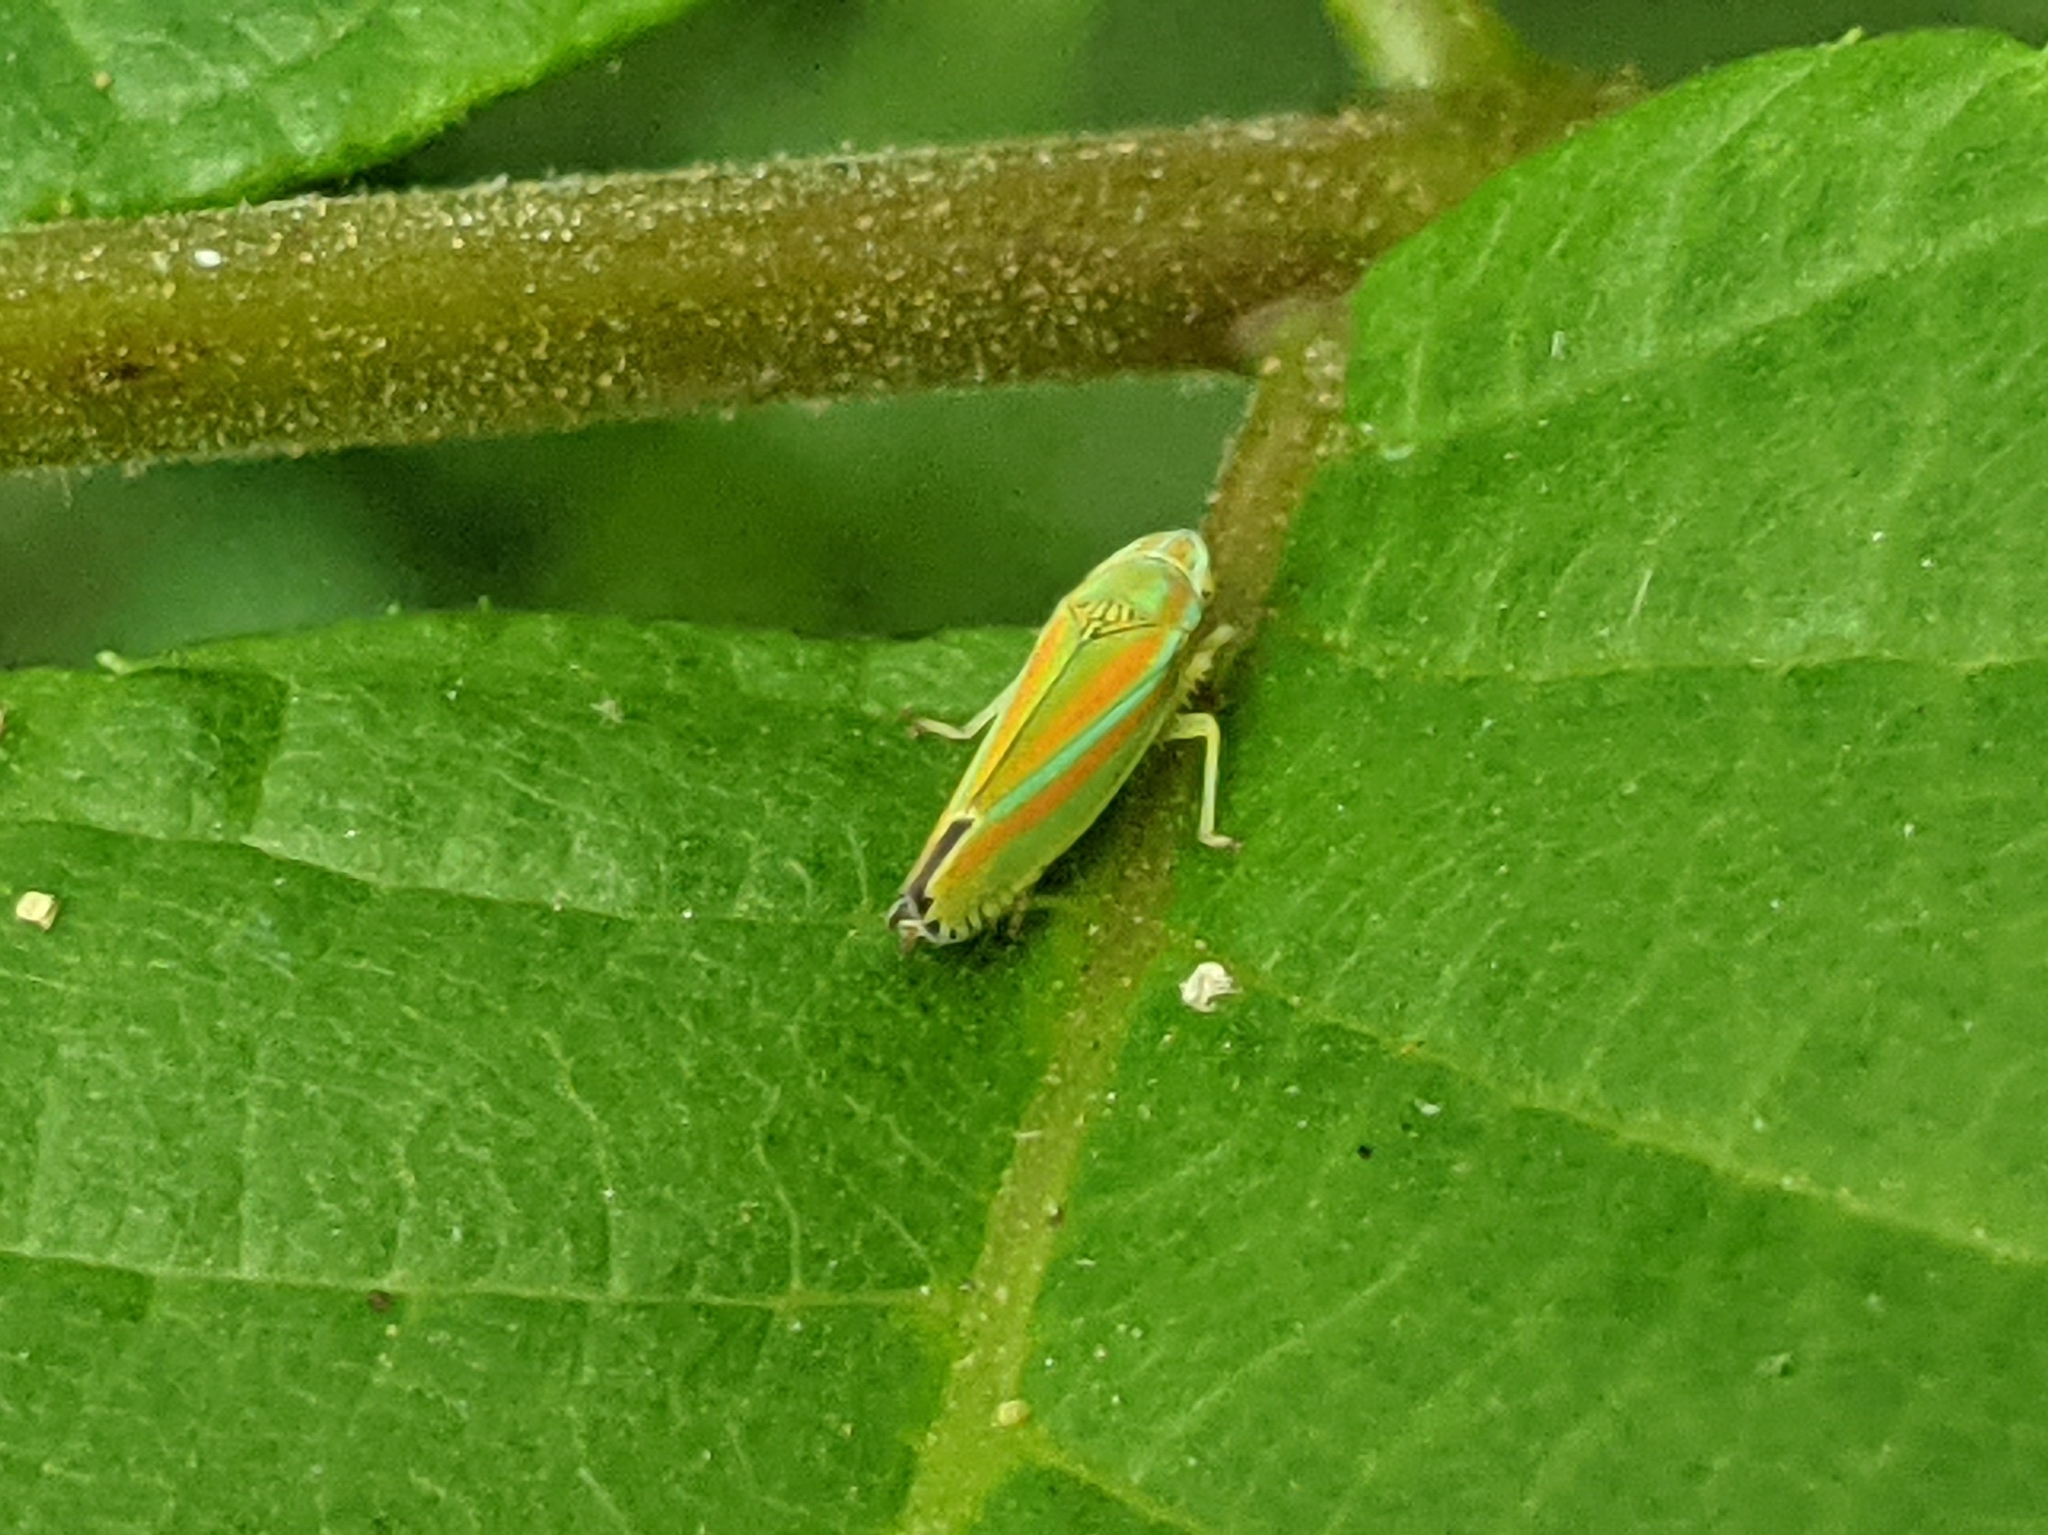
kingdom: Animalia
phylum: Arthropoda
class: Insecta
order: Hemiptera
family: Cicadellidae
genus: Graphocephala
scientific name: Graphocephala versuta
